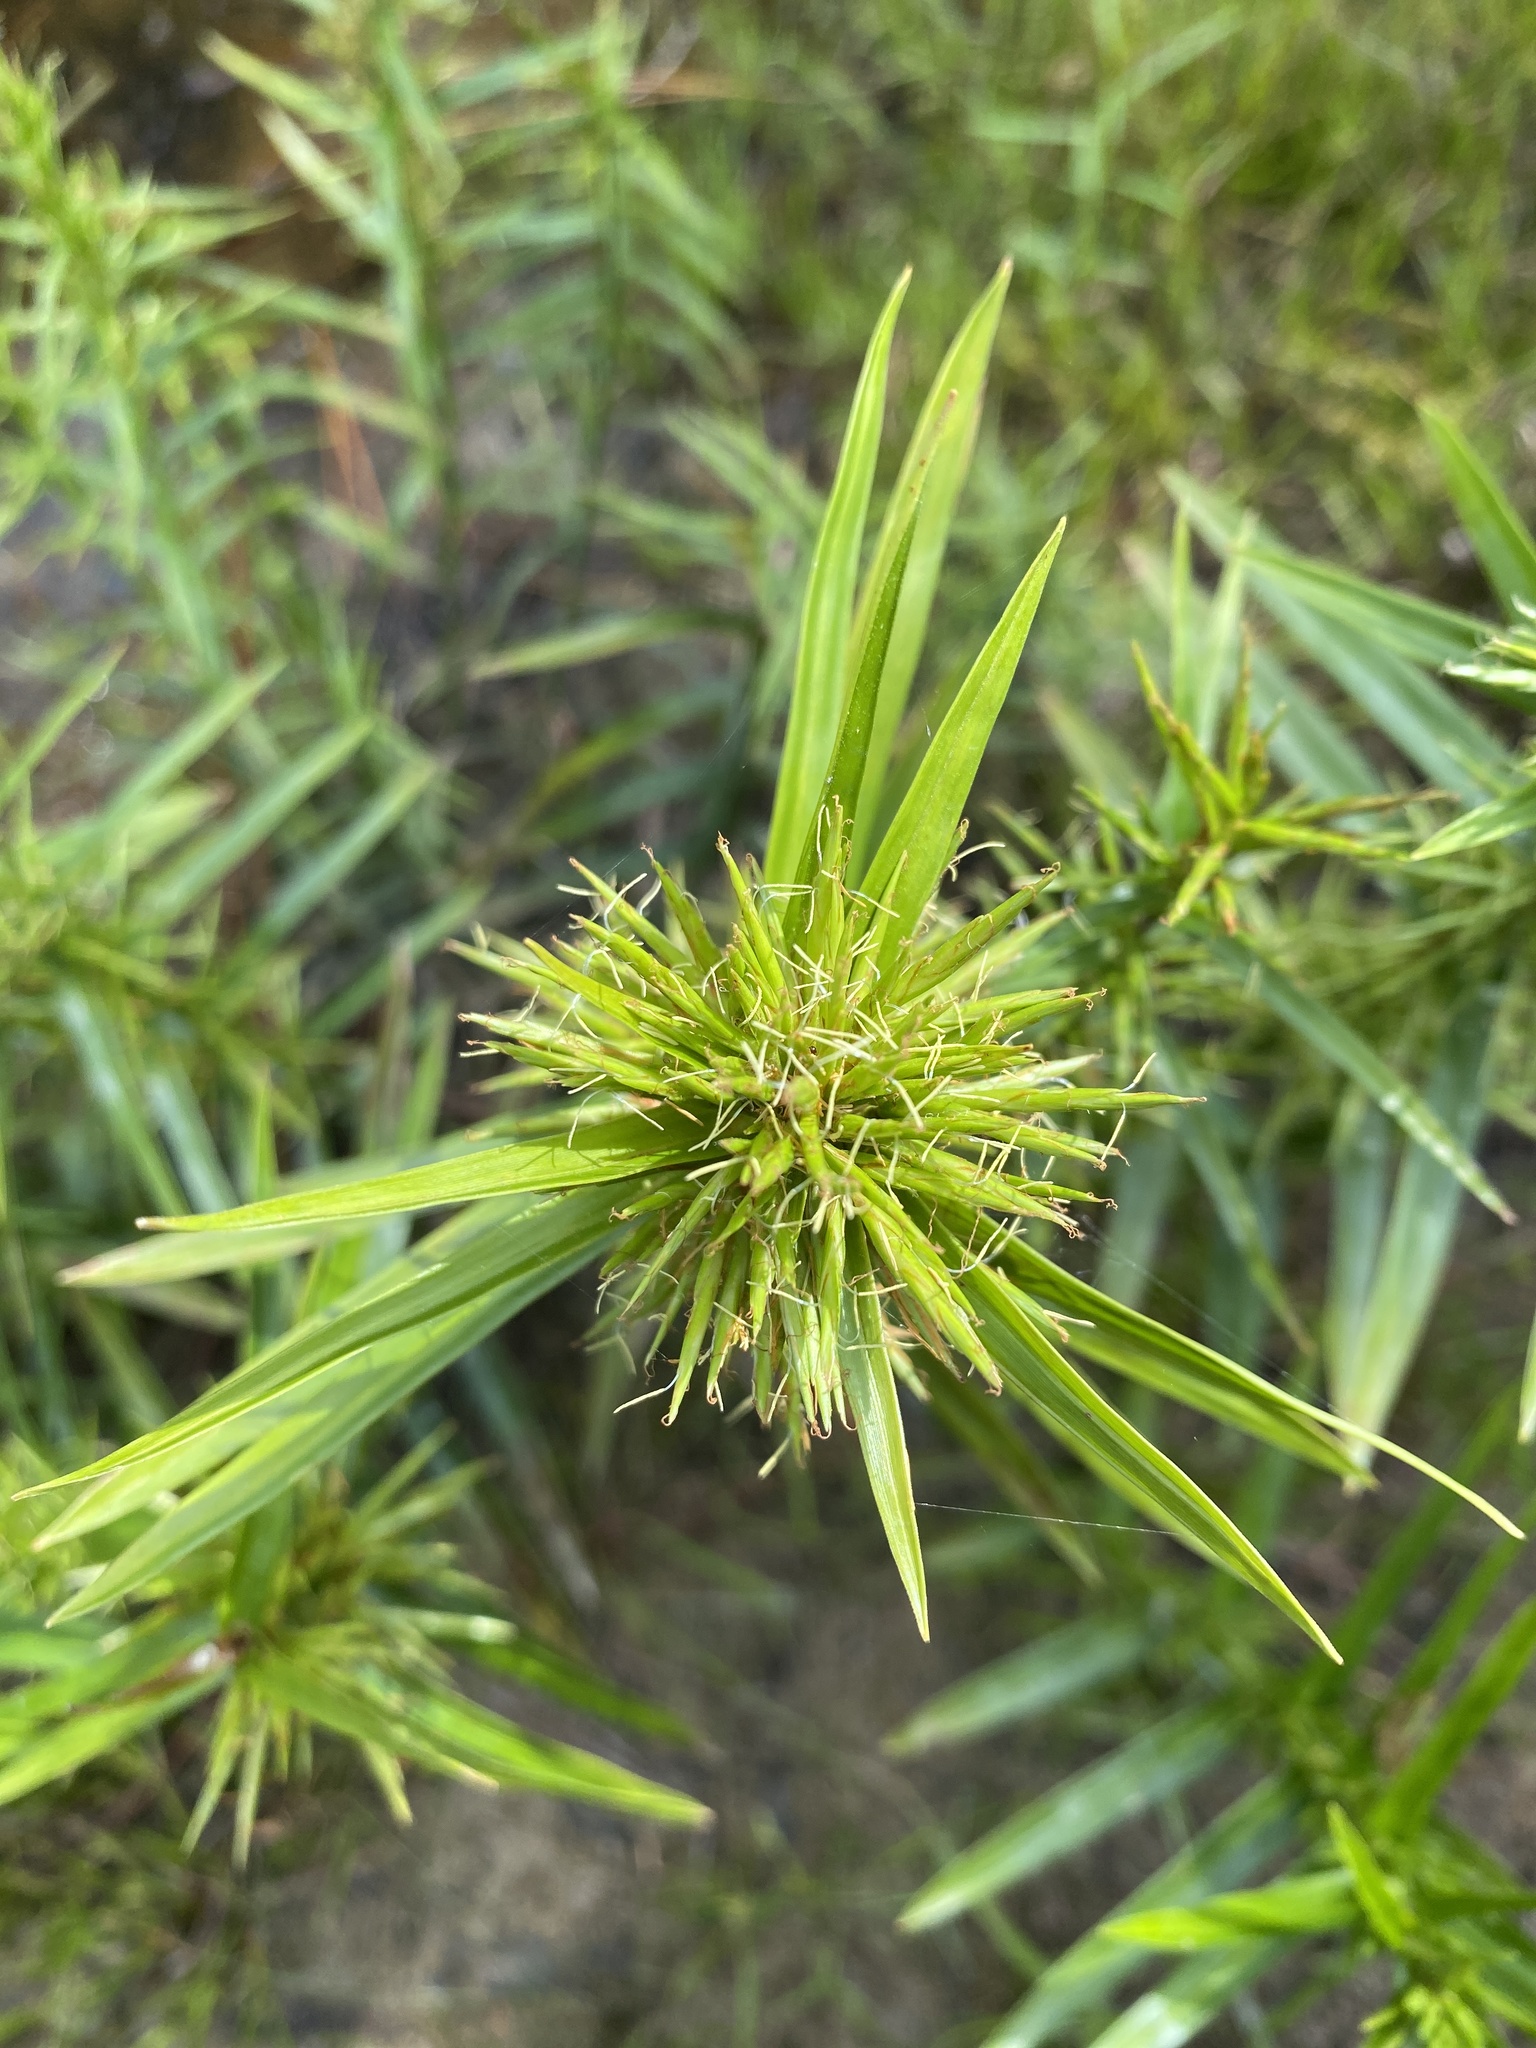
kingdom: Plantae
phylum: Tracheophyta
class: Liliopsida
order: Poales
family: Cyperaceae
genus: Dulichium
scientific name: Dulichium arundinaceum
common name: Three-way sedge
